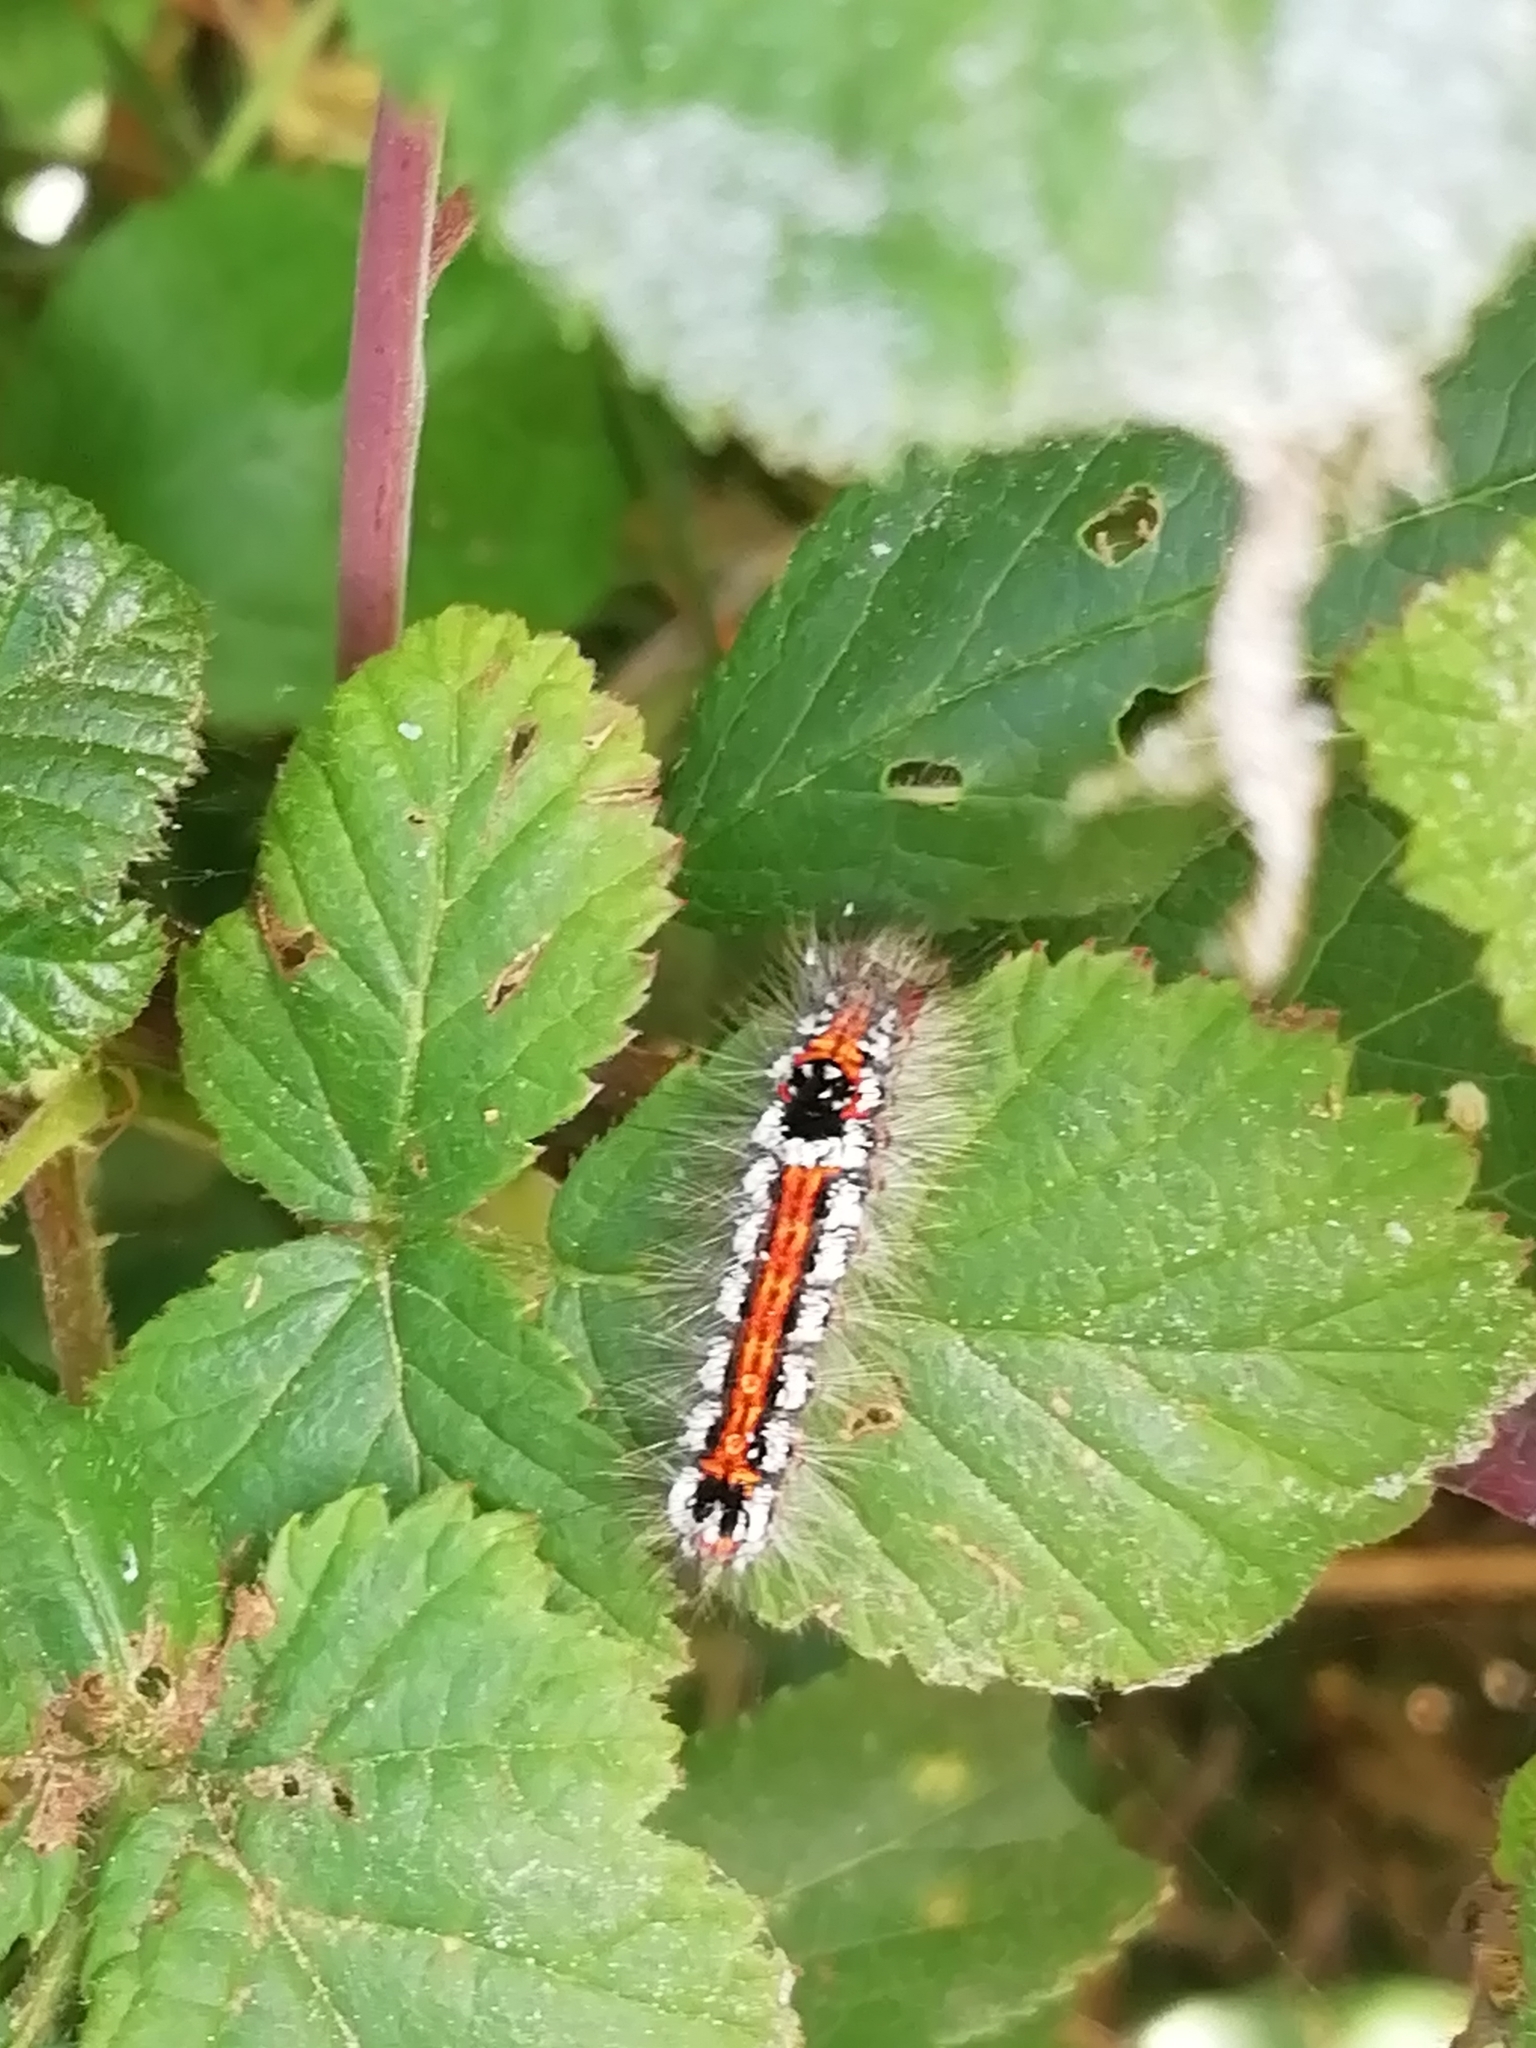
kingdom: Animalia
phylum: Arthropoda
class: Insecta
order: Lepidoptera
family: Erebidae
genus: Sphrageidus
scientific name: Sphrageidus similis
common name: Yellow-tail
